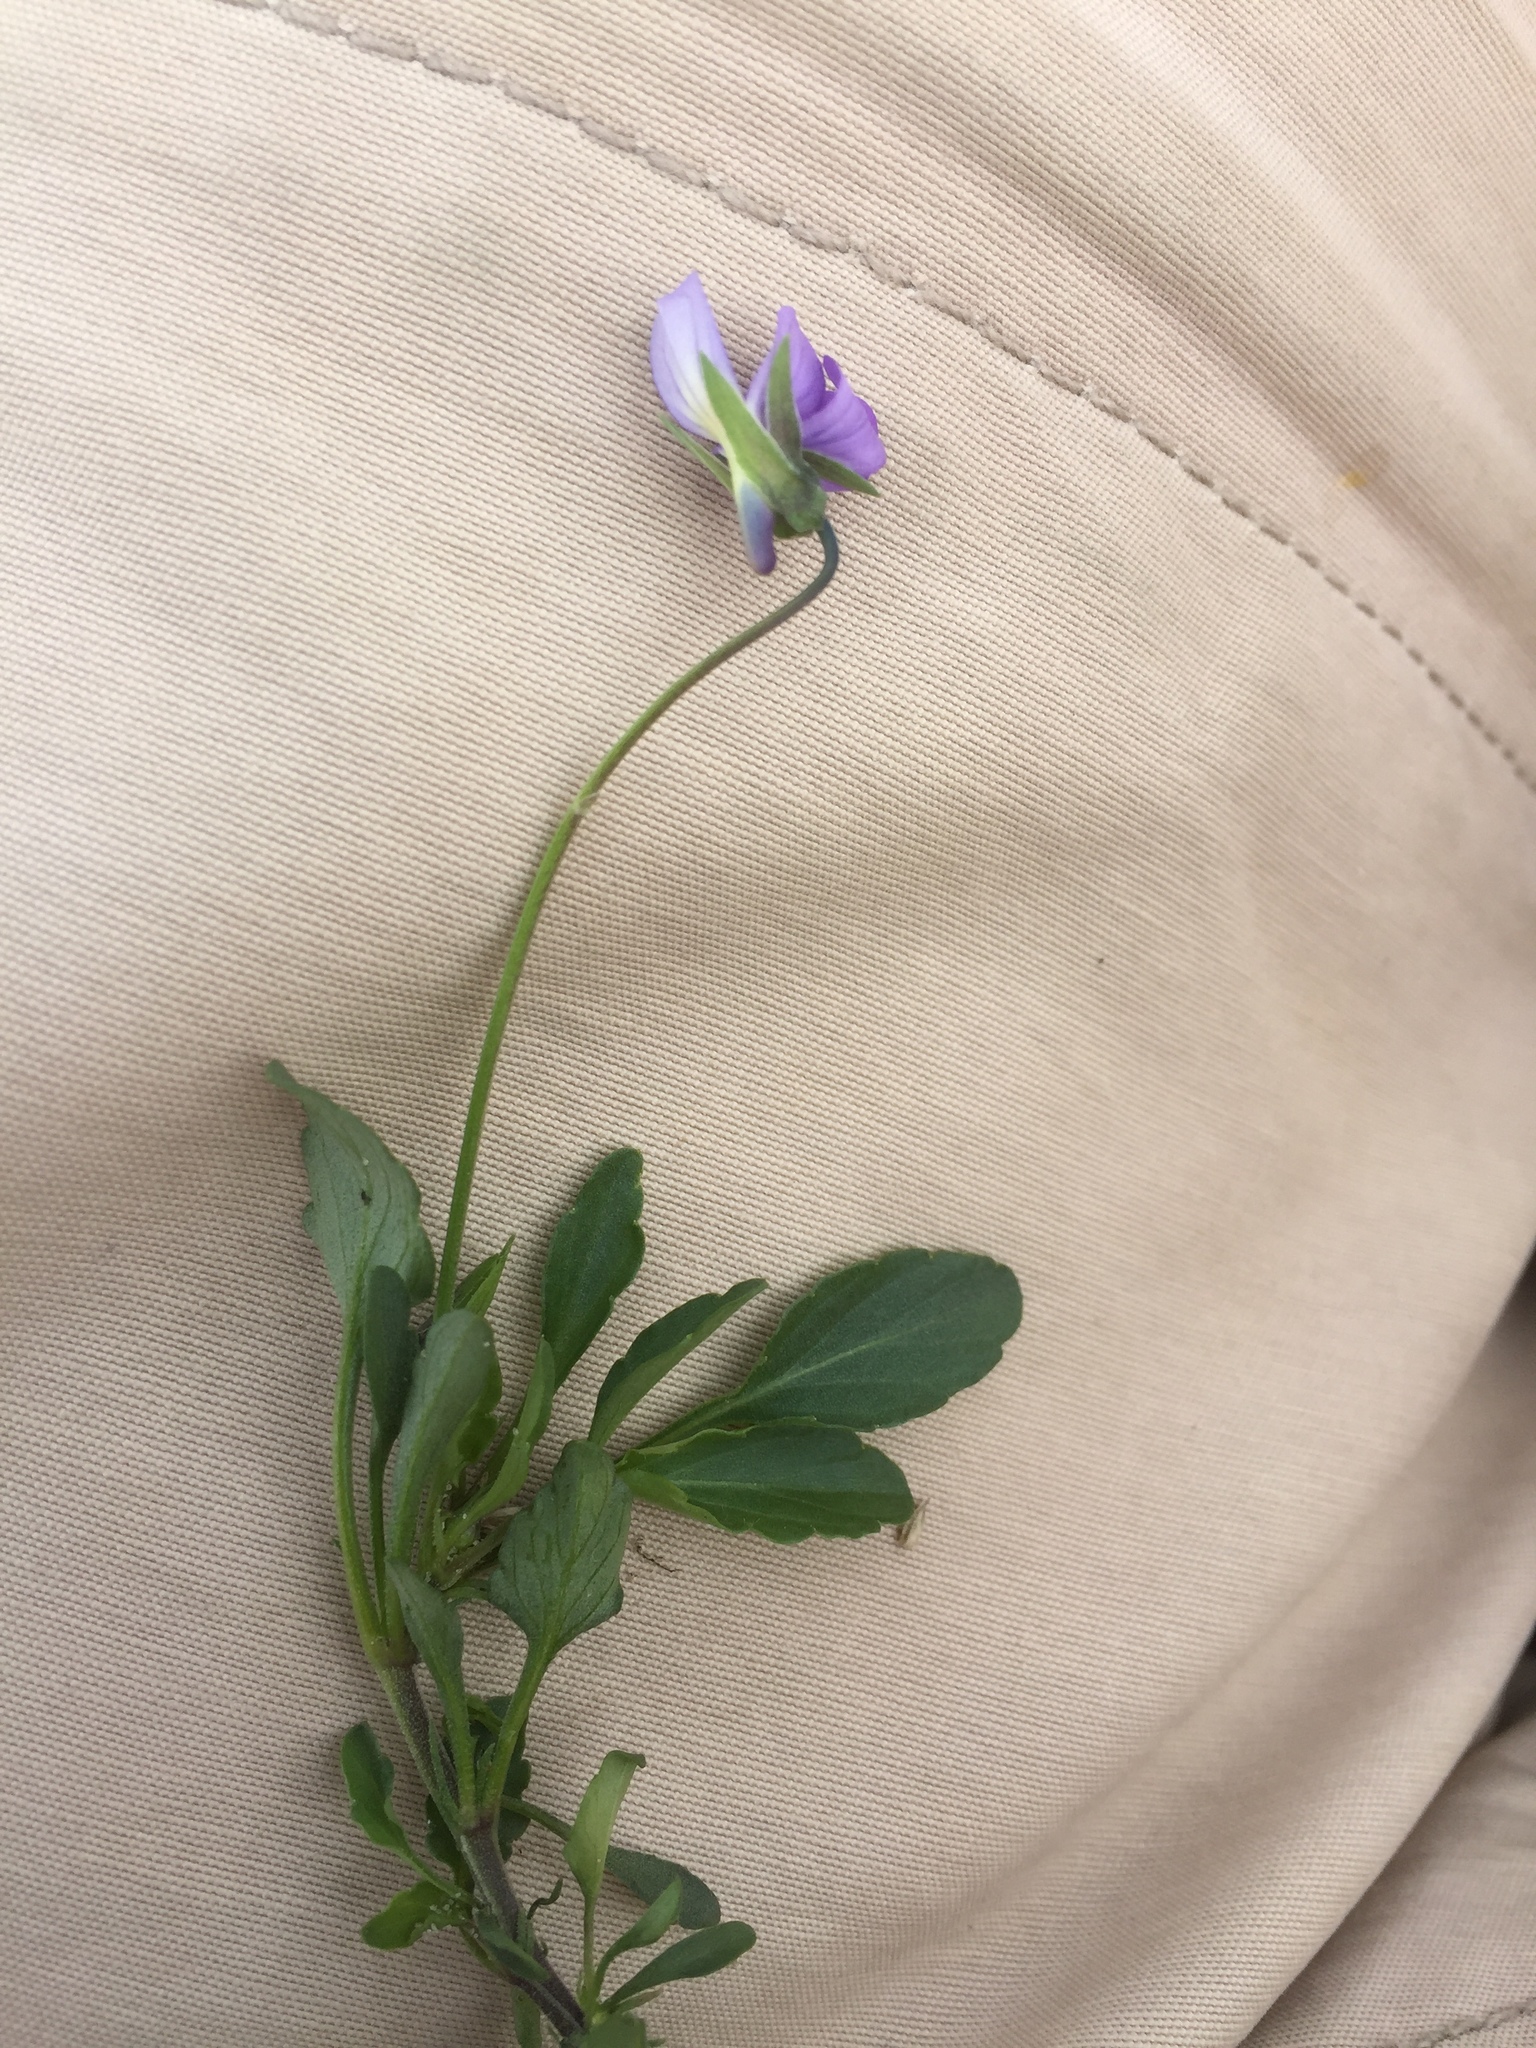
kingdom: Plantae
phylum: Tracheophyta
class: Magnoliopsida
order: Malpighiales
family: Violaceae
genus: Viola
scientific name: Viola tricolor
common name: Pansy
